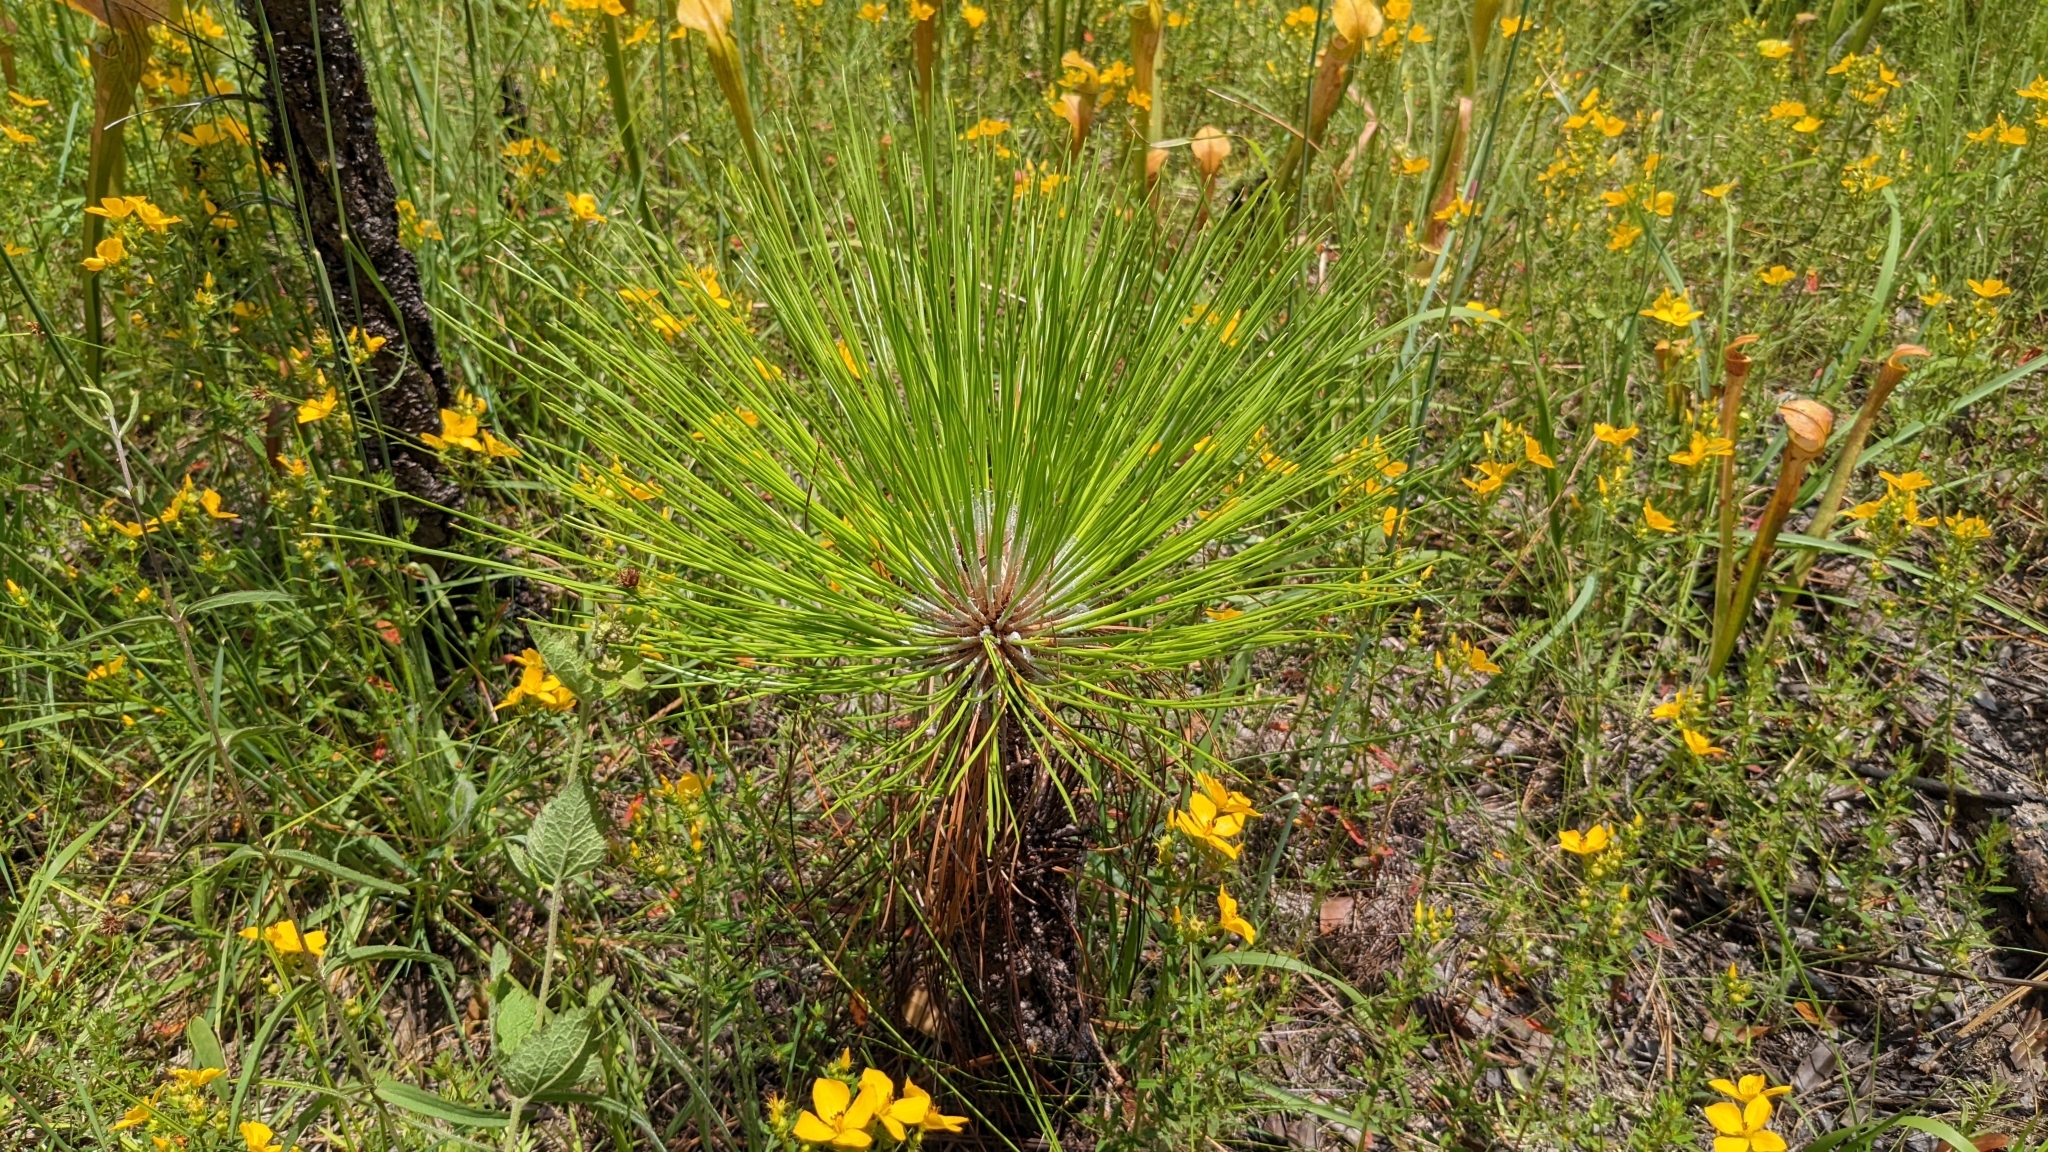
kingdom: Plantae
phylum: Tracheophyta
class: Pinopsida
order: Pinales
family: Pinaceae
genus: Pinus
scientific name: Pinus palustris
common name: Longleaf pine
